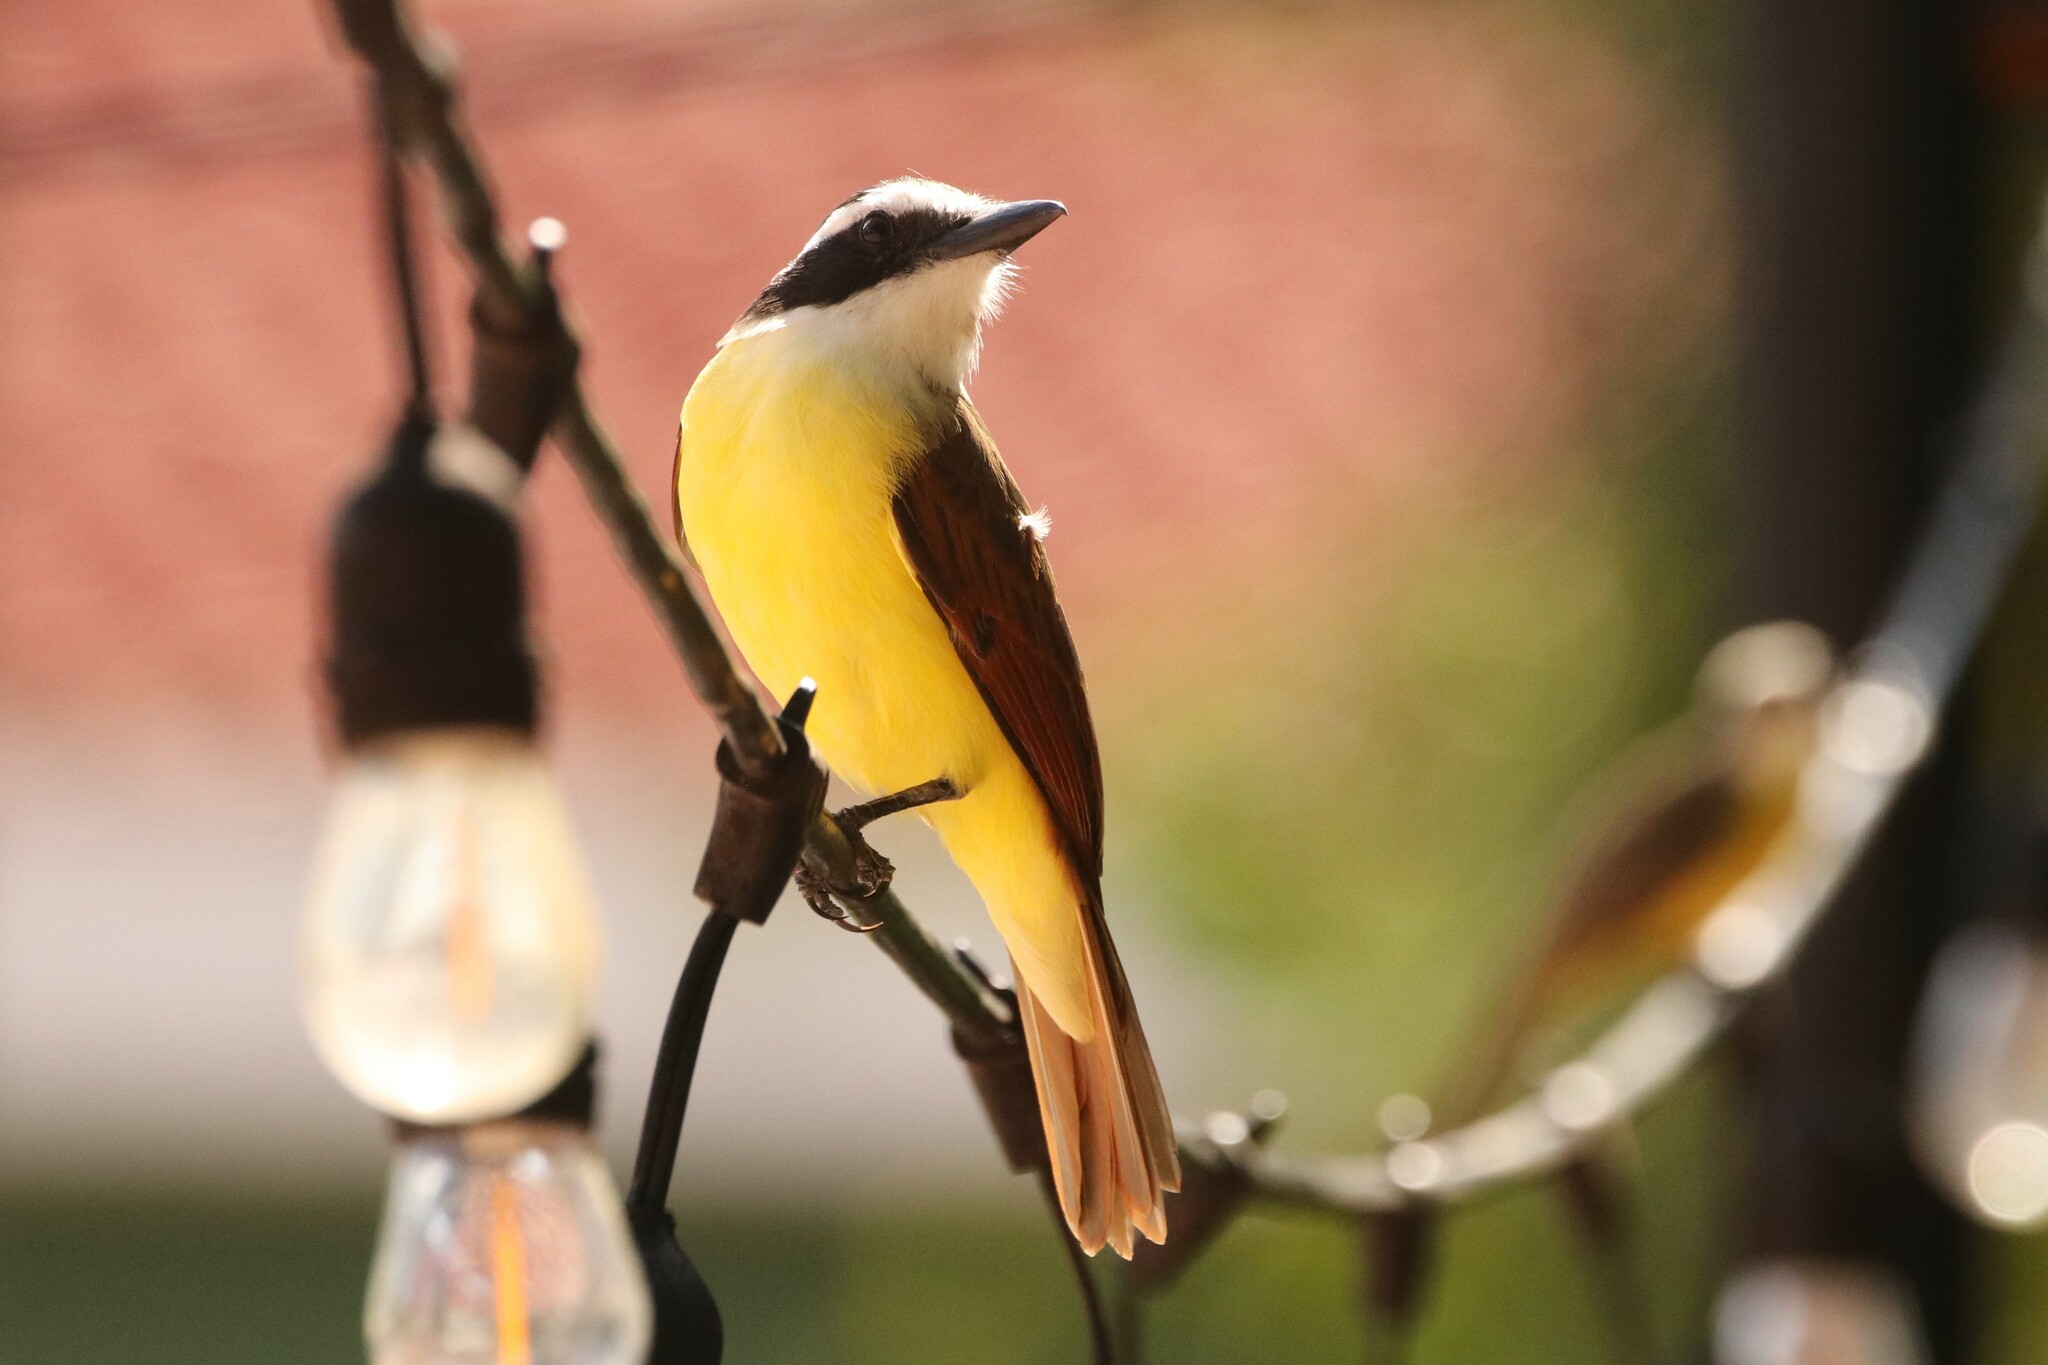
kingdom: Animalia
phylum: Chordata
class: Aves
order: Passeriformes
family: Tyrannidae
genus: Pitangus
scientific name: Pitangus sulphuratus
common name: Great kiskadee
